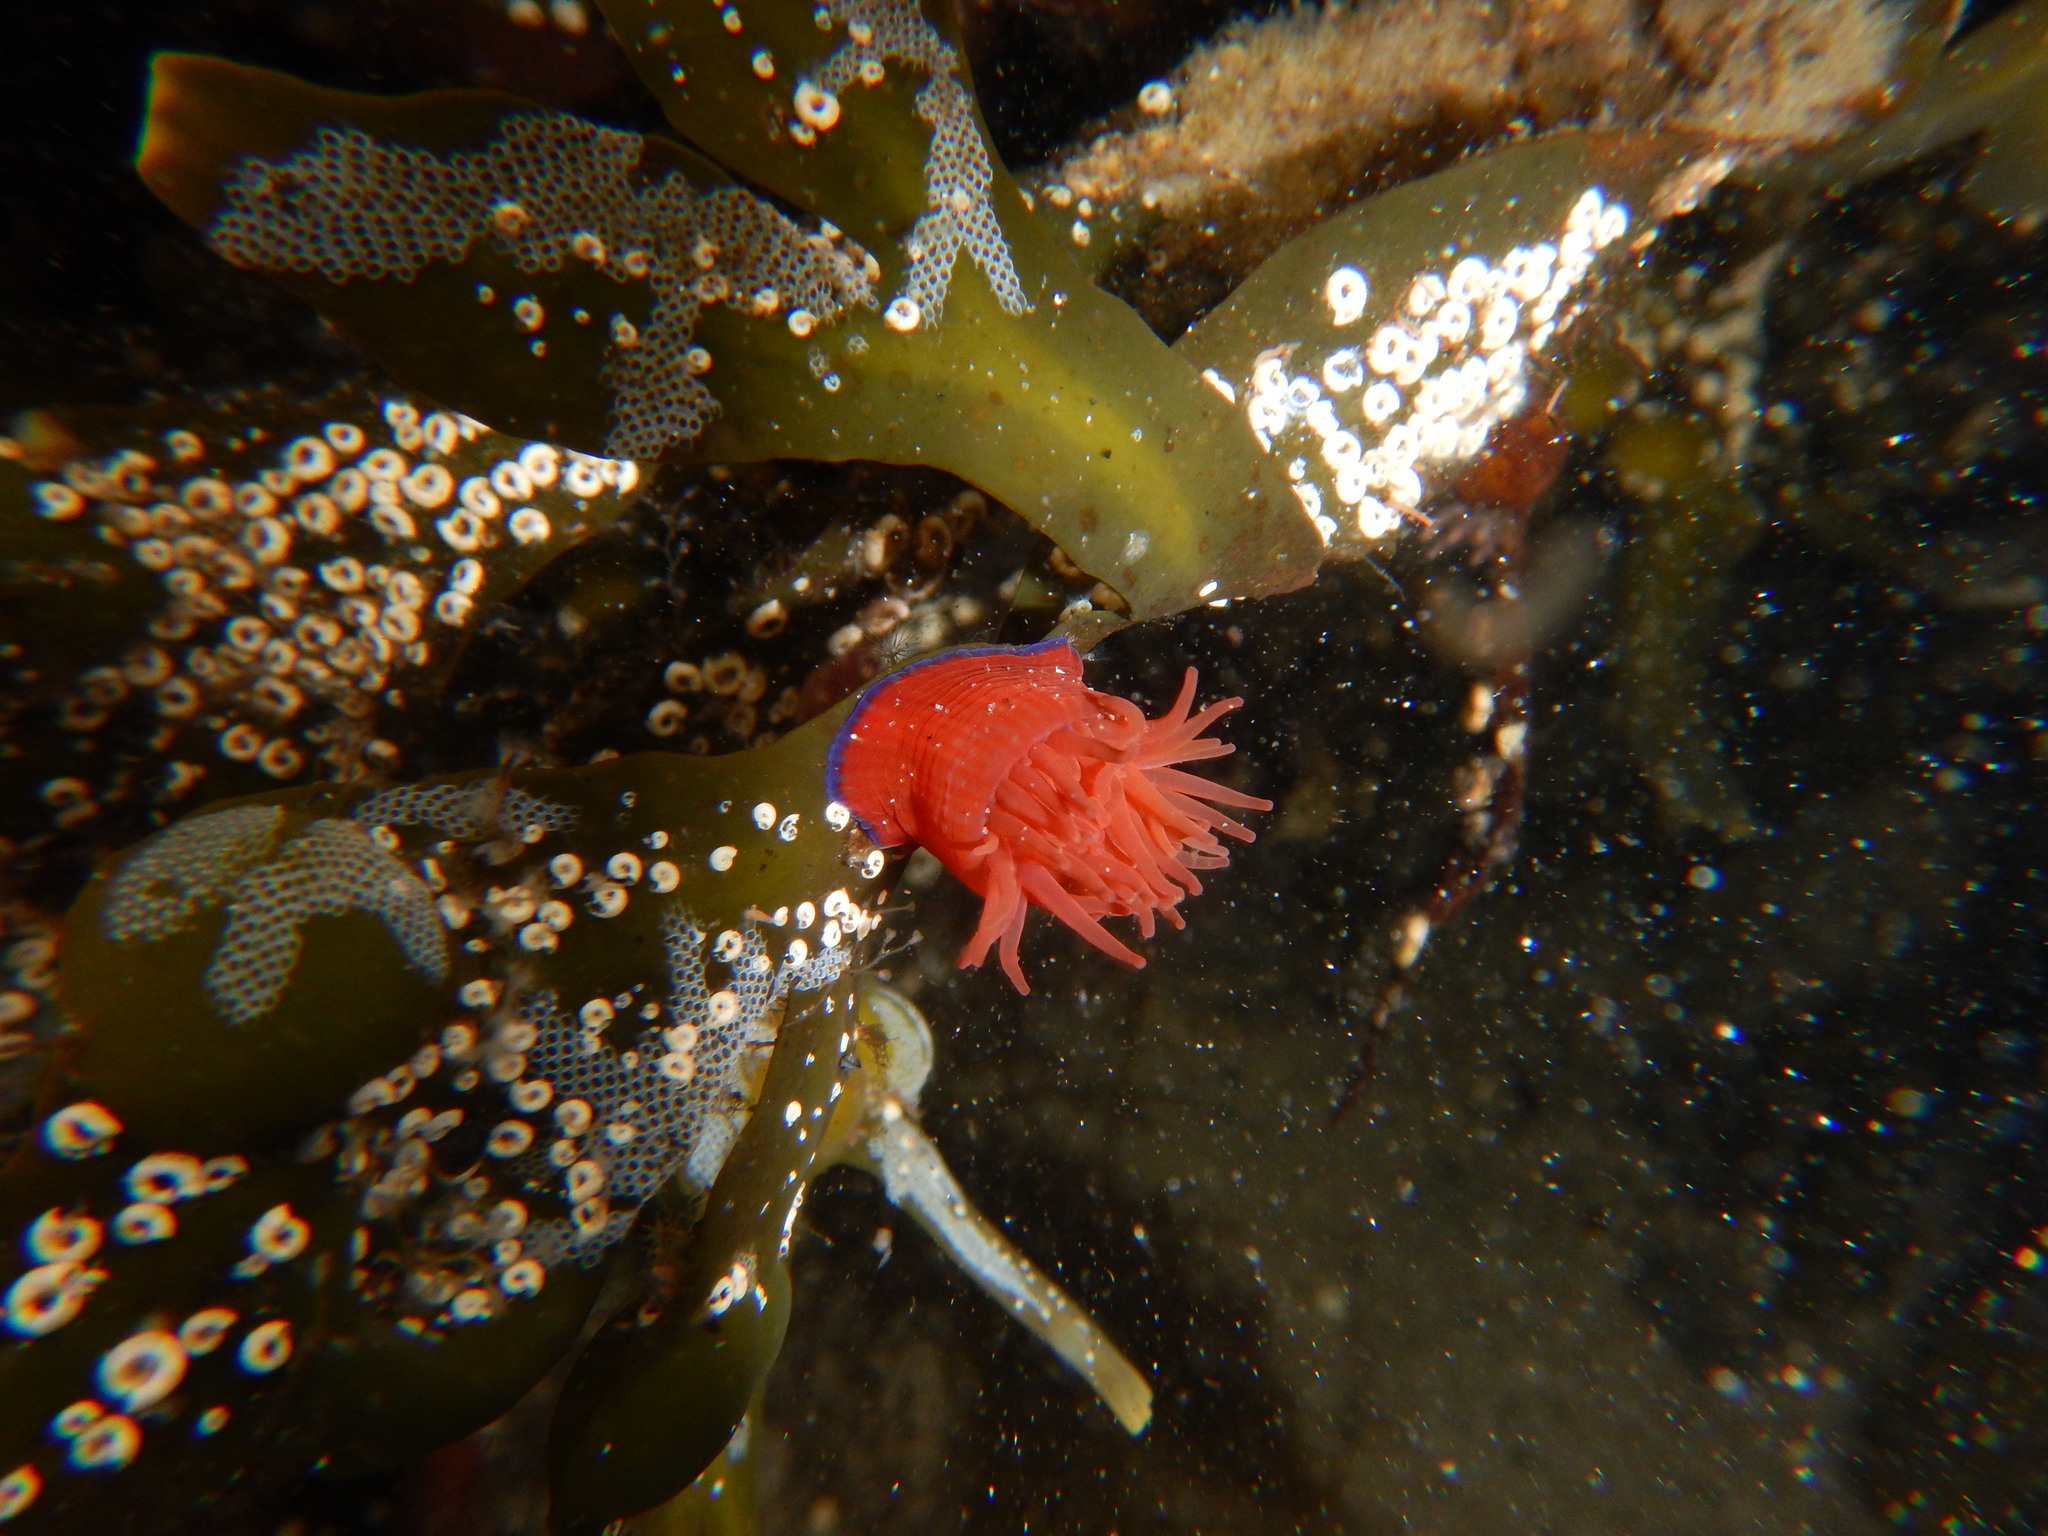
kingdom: Animalia
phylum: Cnidaria
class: Anthozoa
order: Actiniaria
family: Actiniidae
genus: Actinia
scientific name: Actinia equina
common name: Beadlet anemone
